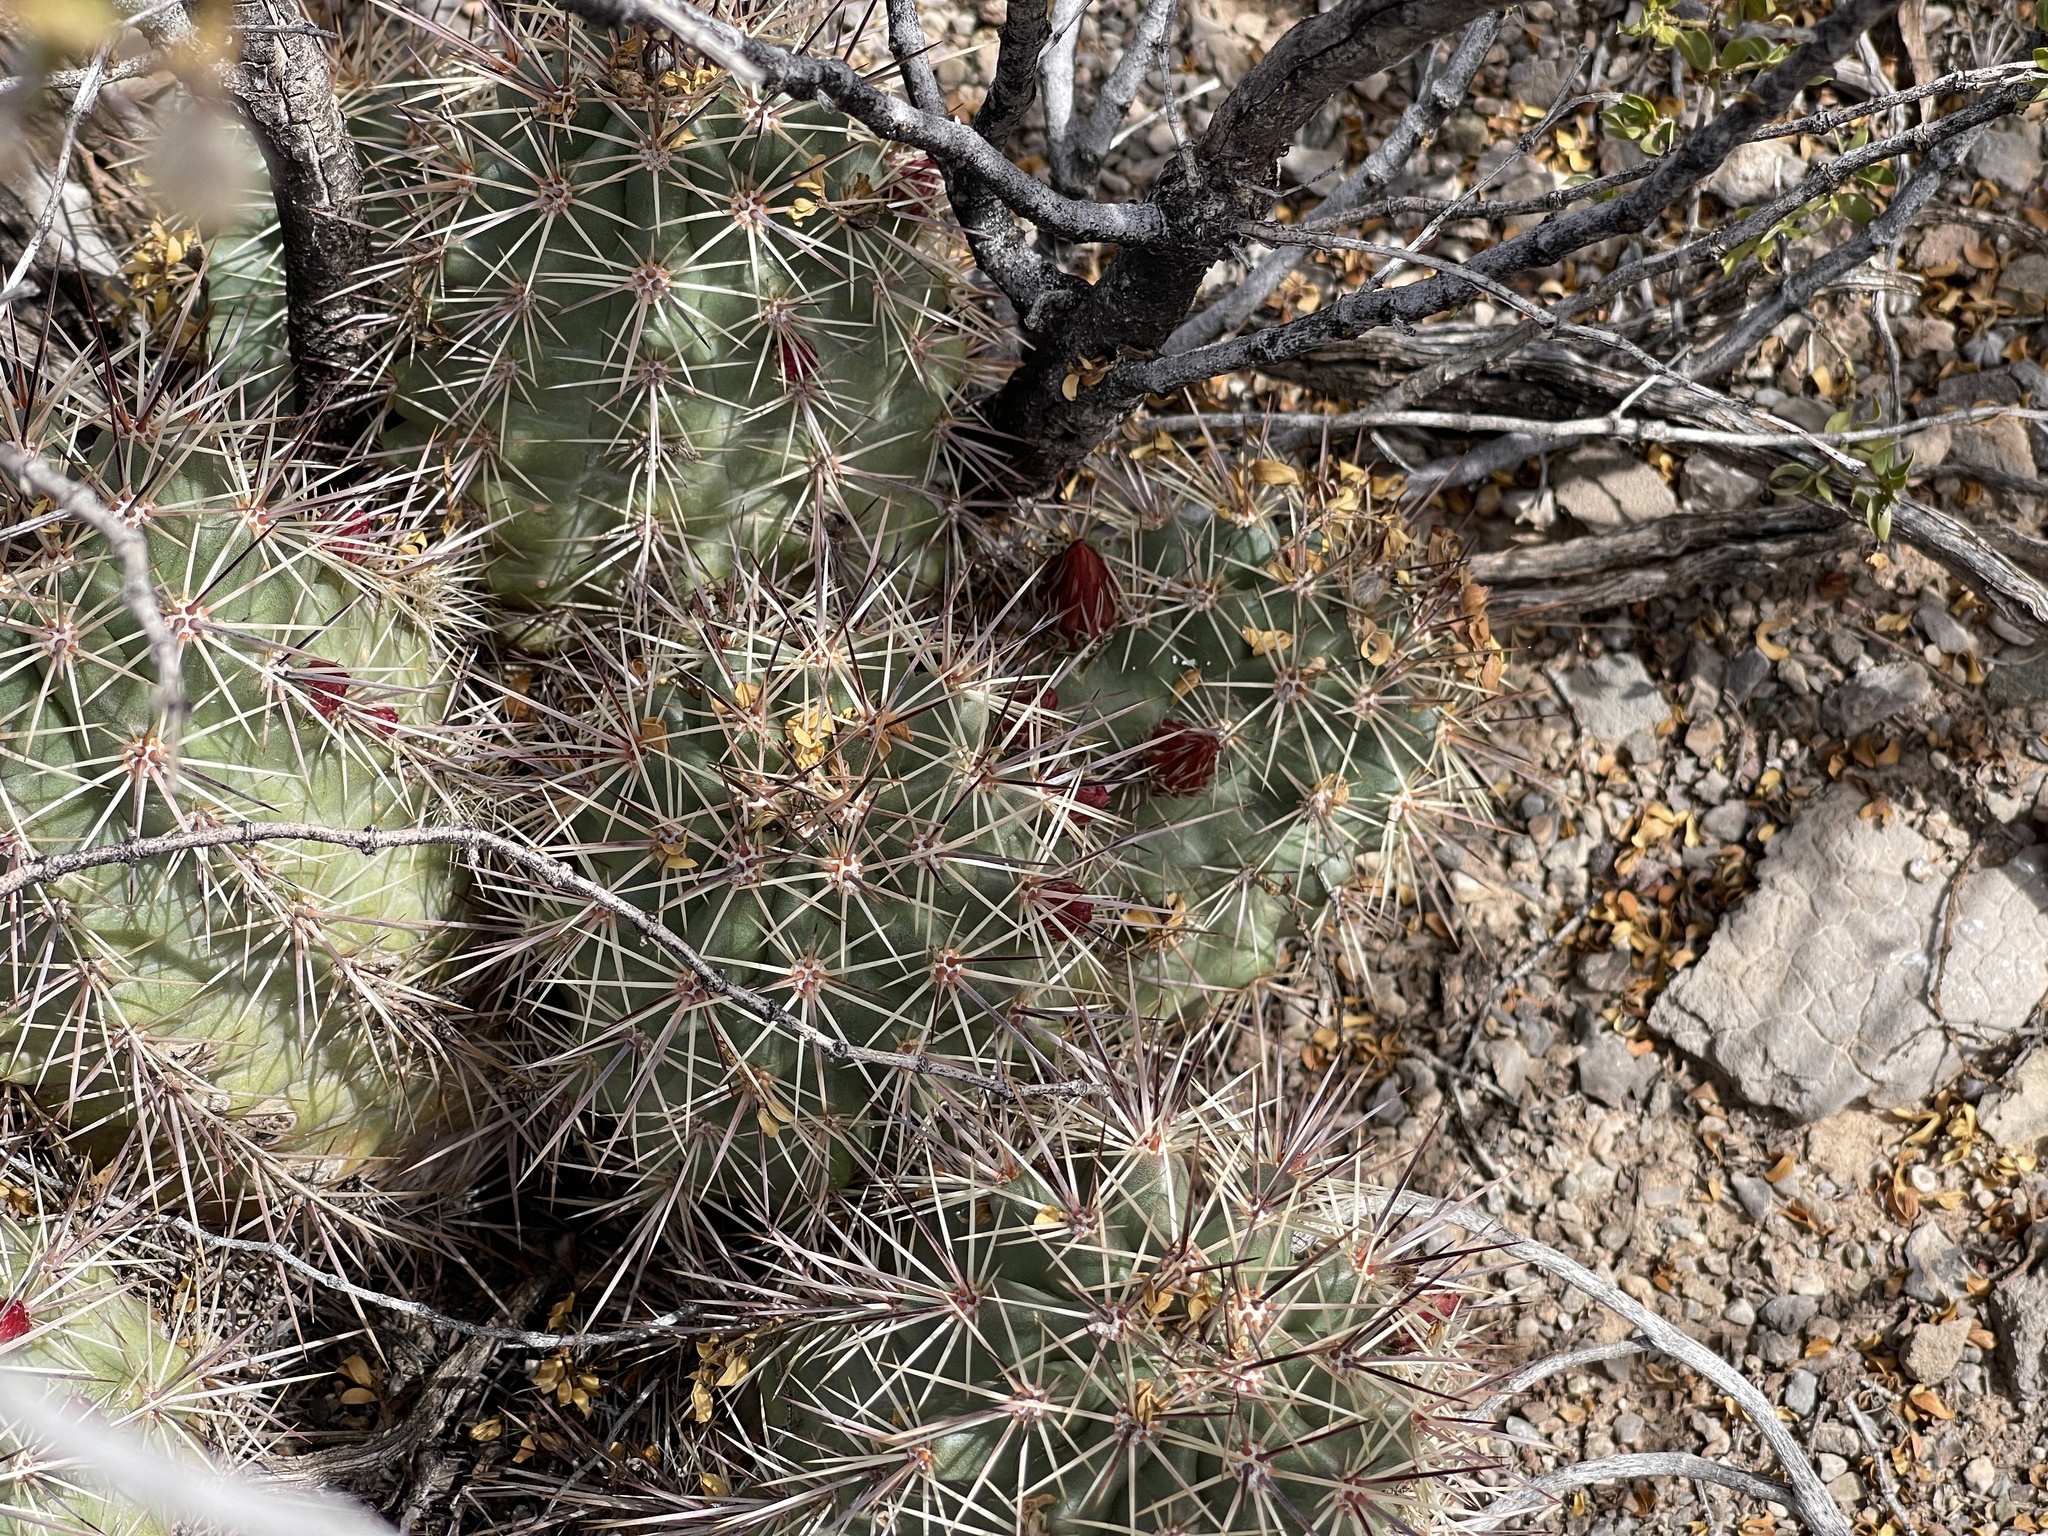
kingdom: Plantae
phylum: Tracheophyta
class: Magnoliopsida
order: Caryophyllales
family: Cactaceae
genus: Echinocereus
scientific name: Echinocereus coccineus
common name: Scarlet hedgehog cactus
